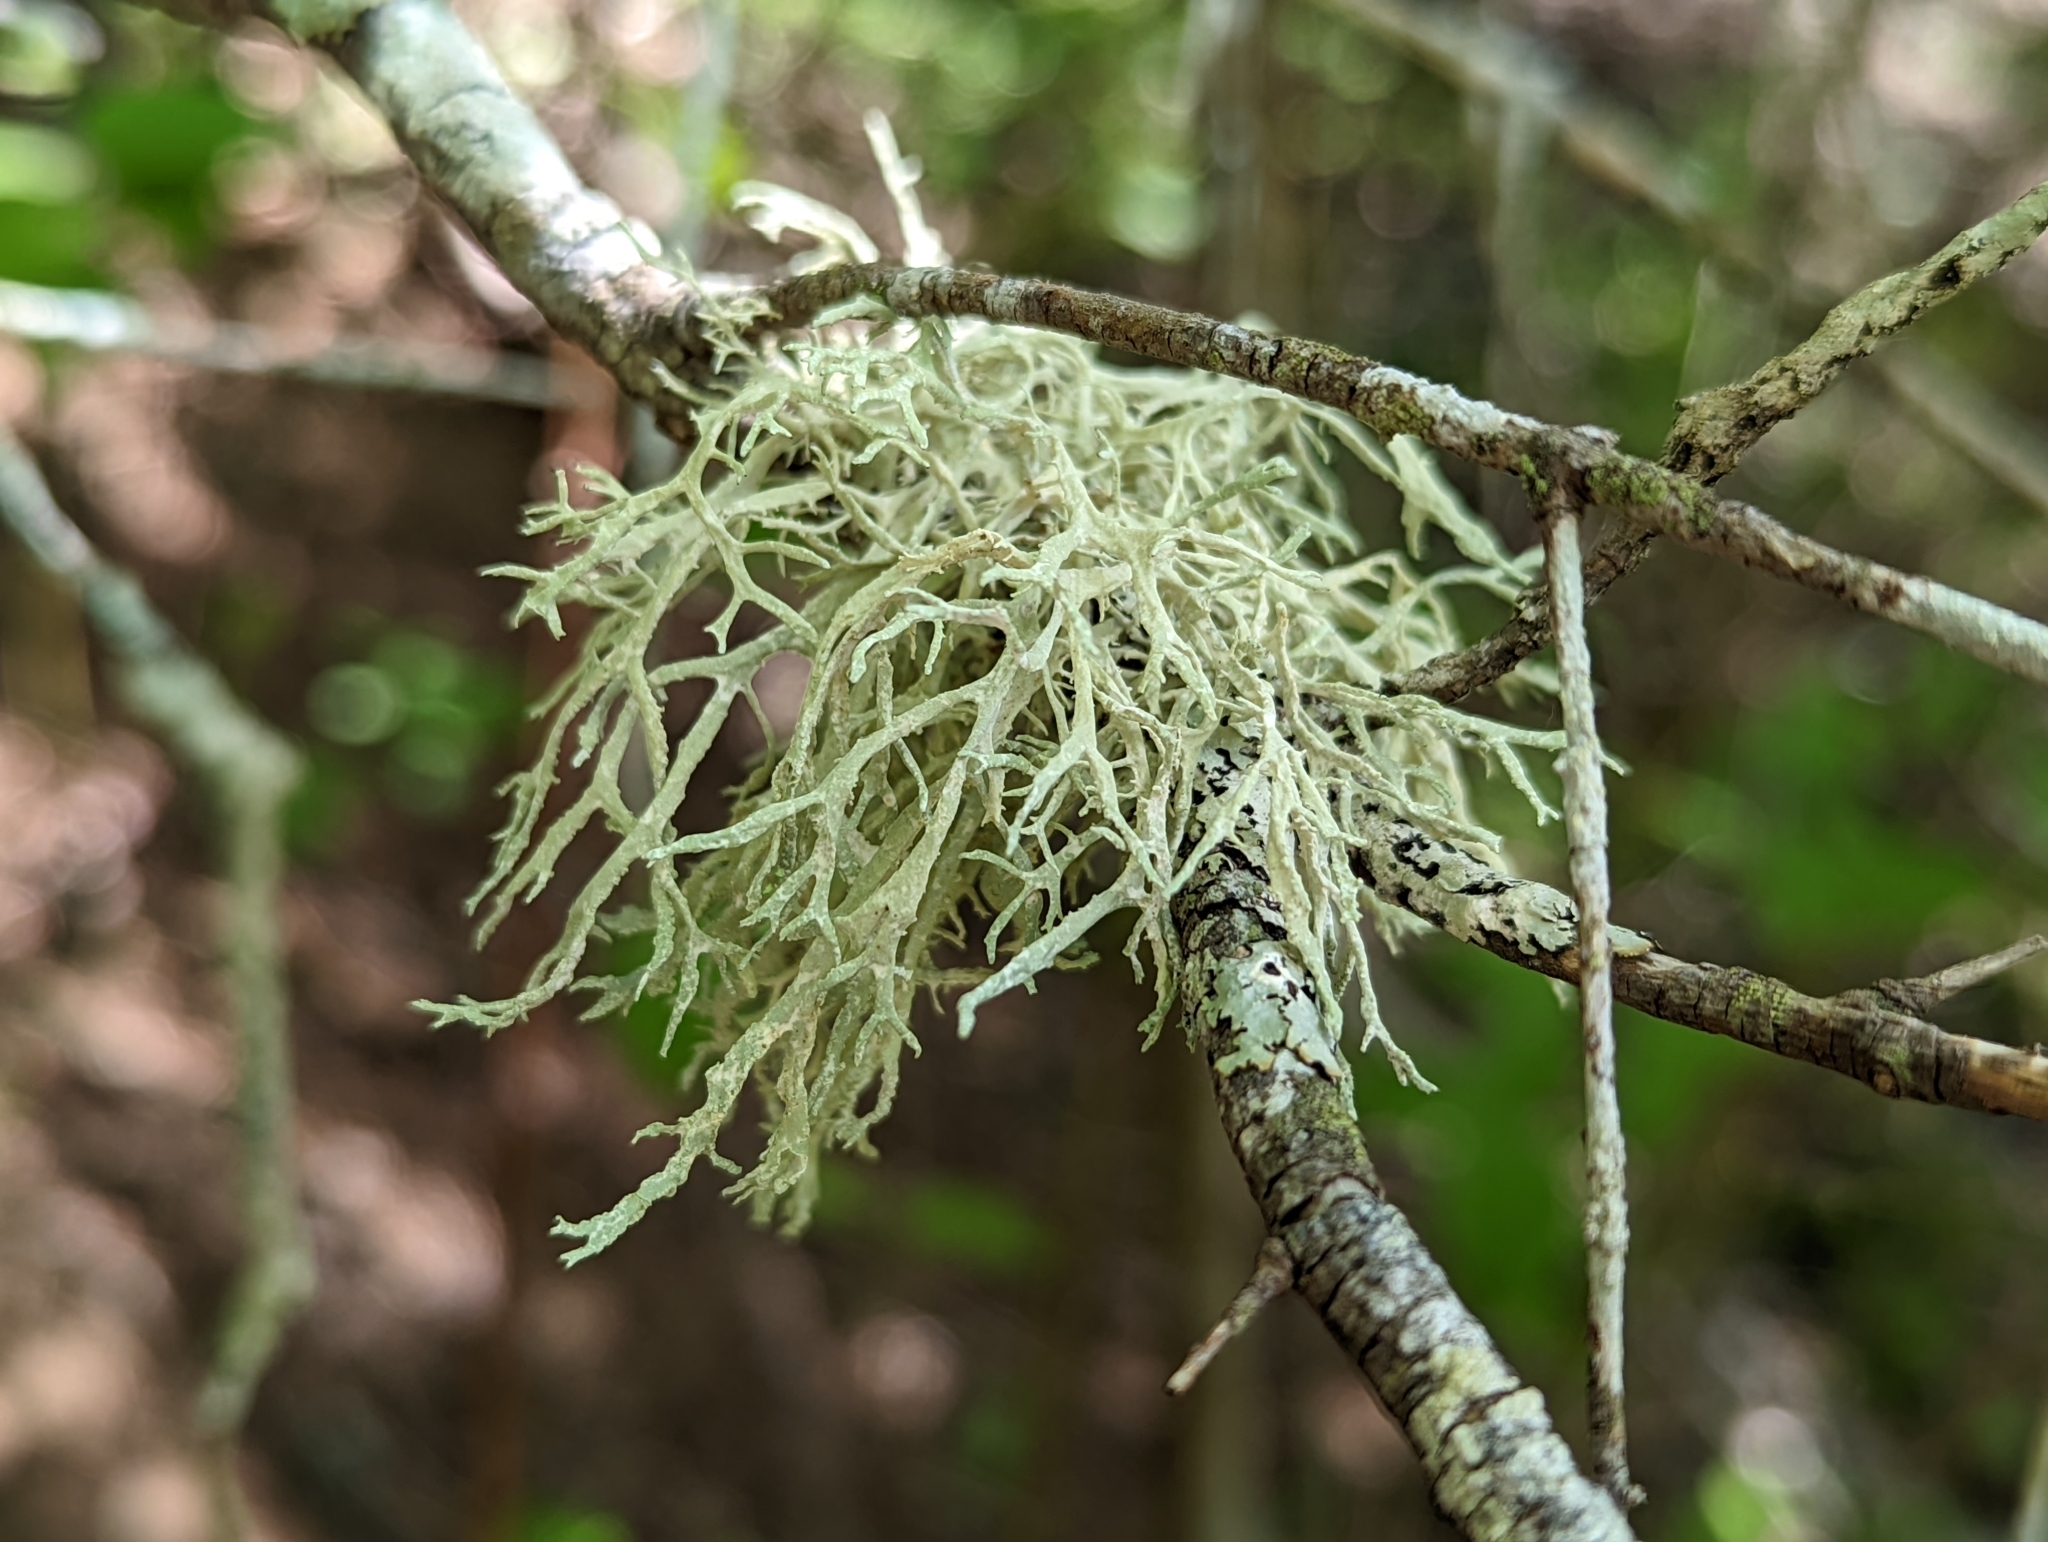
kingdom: Fungi
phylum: Ascomycota
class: Lecanoromycetes
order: Lecanorales
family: Parmeliaceae
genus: Evernia
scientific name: Evernia prunastri
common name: Oak moss
